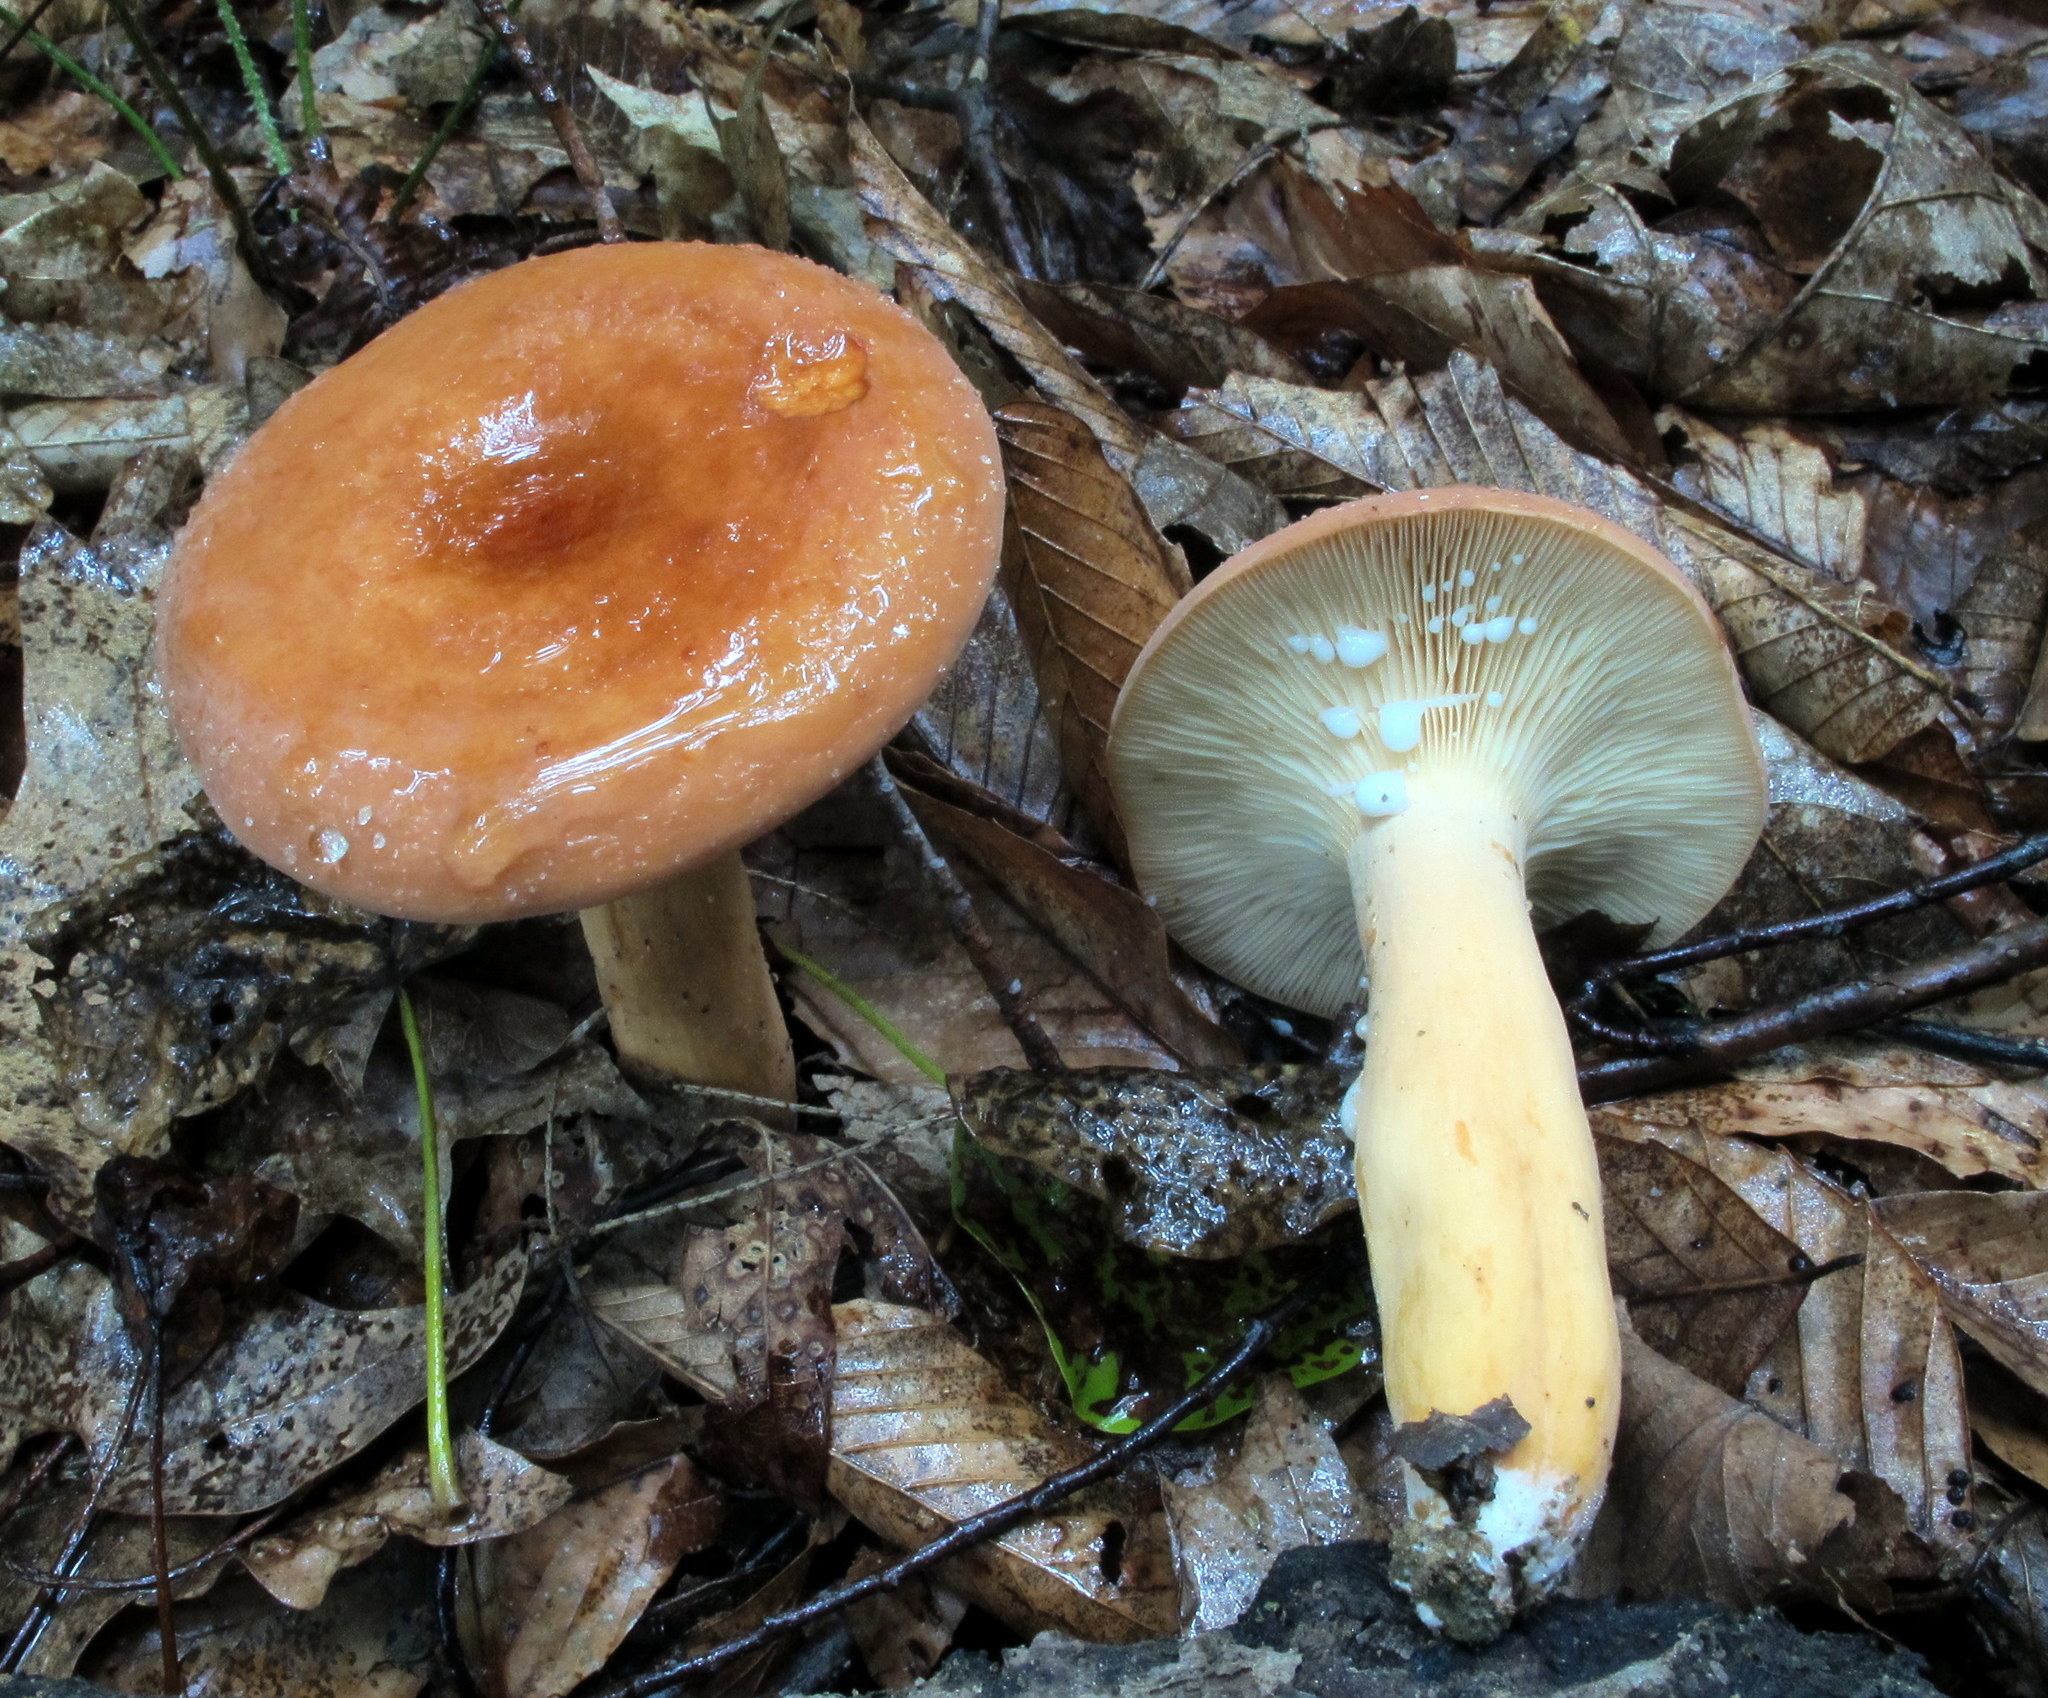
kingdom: Fungi
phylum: Basidiomycota
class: Agaricomycetes
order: Russulales
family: Russulaceae
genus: Lactifluus
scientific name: Lactifluus volemus
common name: Fishy milkcap
